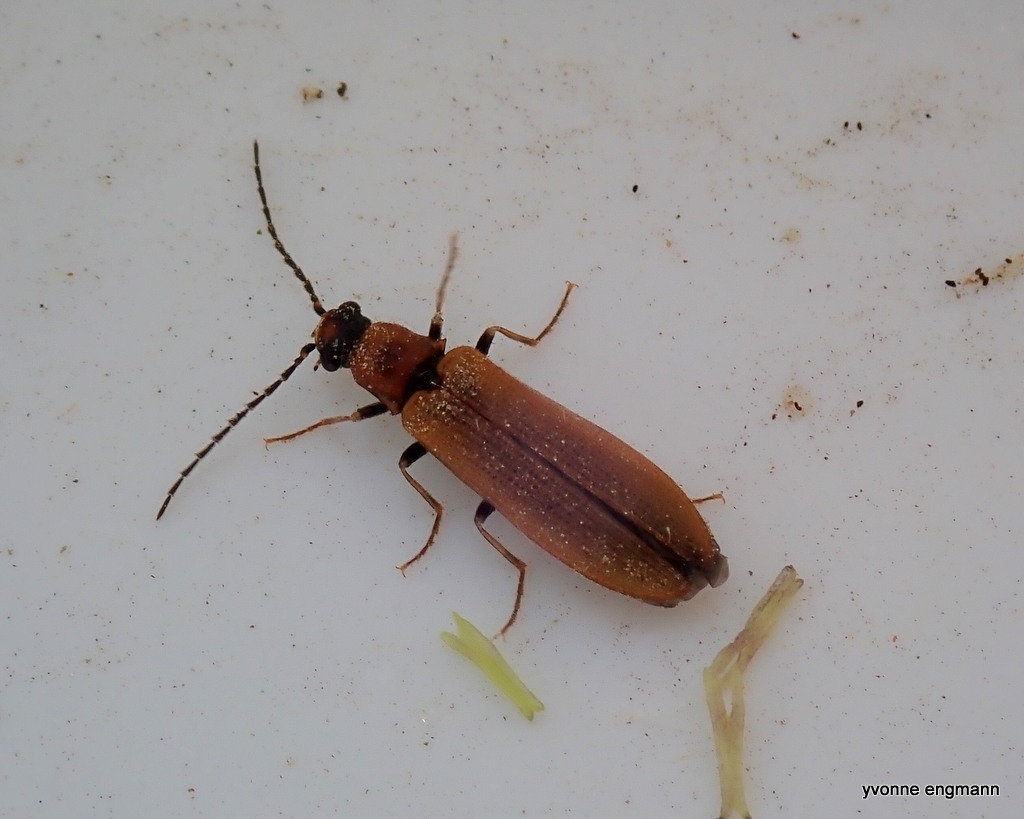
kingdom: Animalia
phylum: Arthropoda
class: Insecta
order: Coleoptera
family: Elateridae
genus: Denticollis
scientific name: Denticollis linearis
